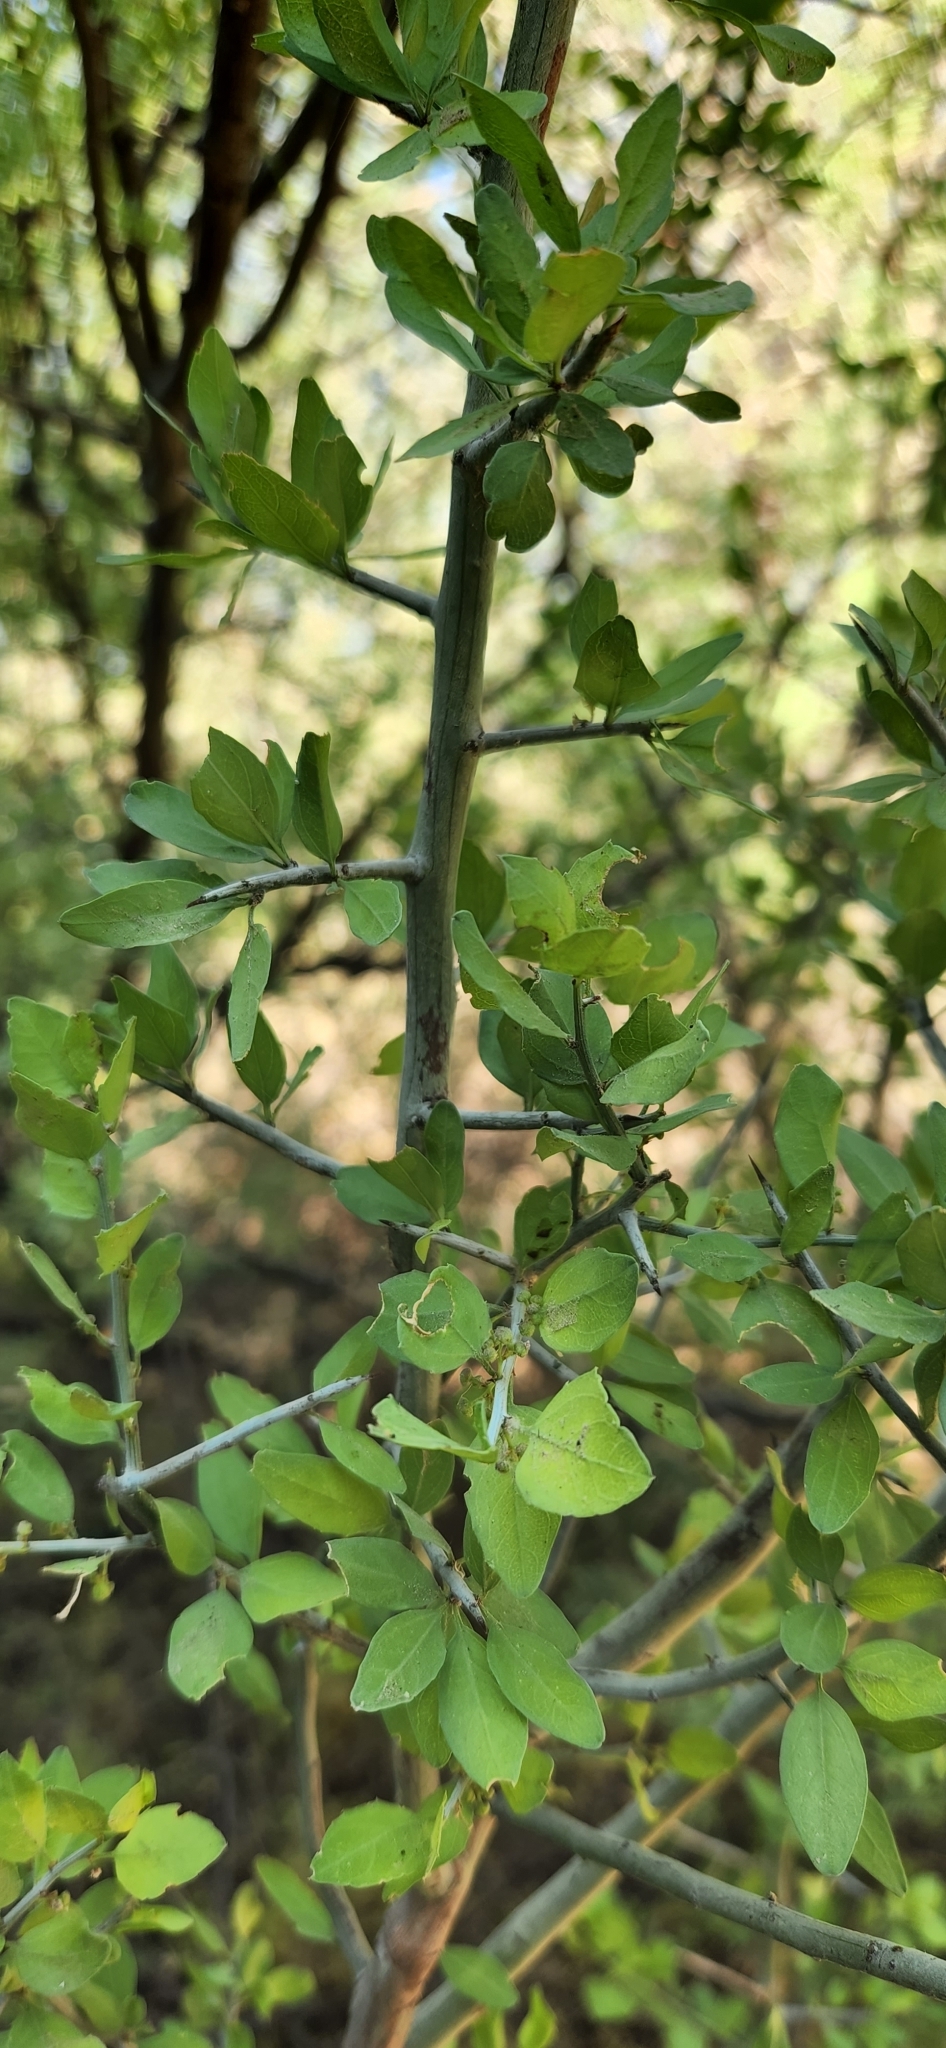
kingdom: Plantae
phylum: Tracheophyta
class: Magnoliopsida
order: Rosales
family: Rhamnaceae
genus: Sarcomphalus
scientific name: Sarcomphalus obtusifolius
